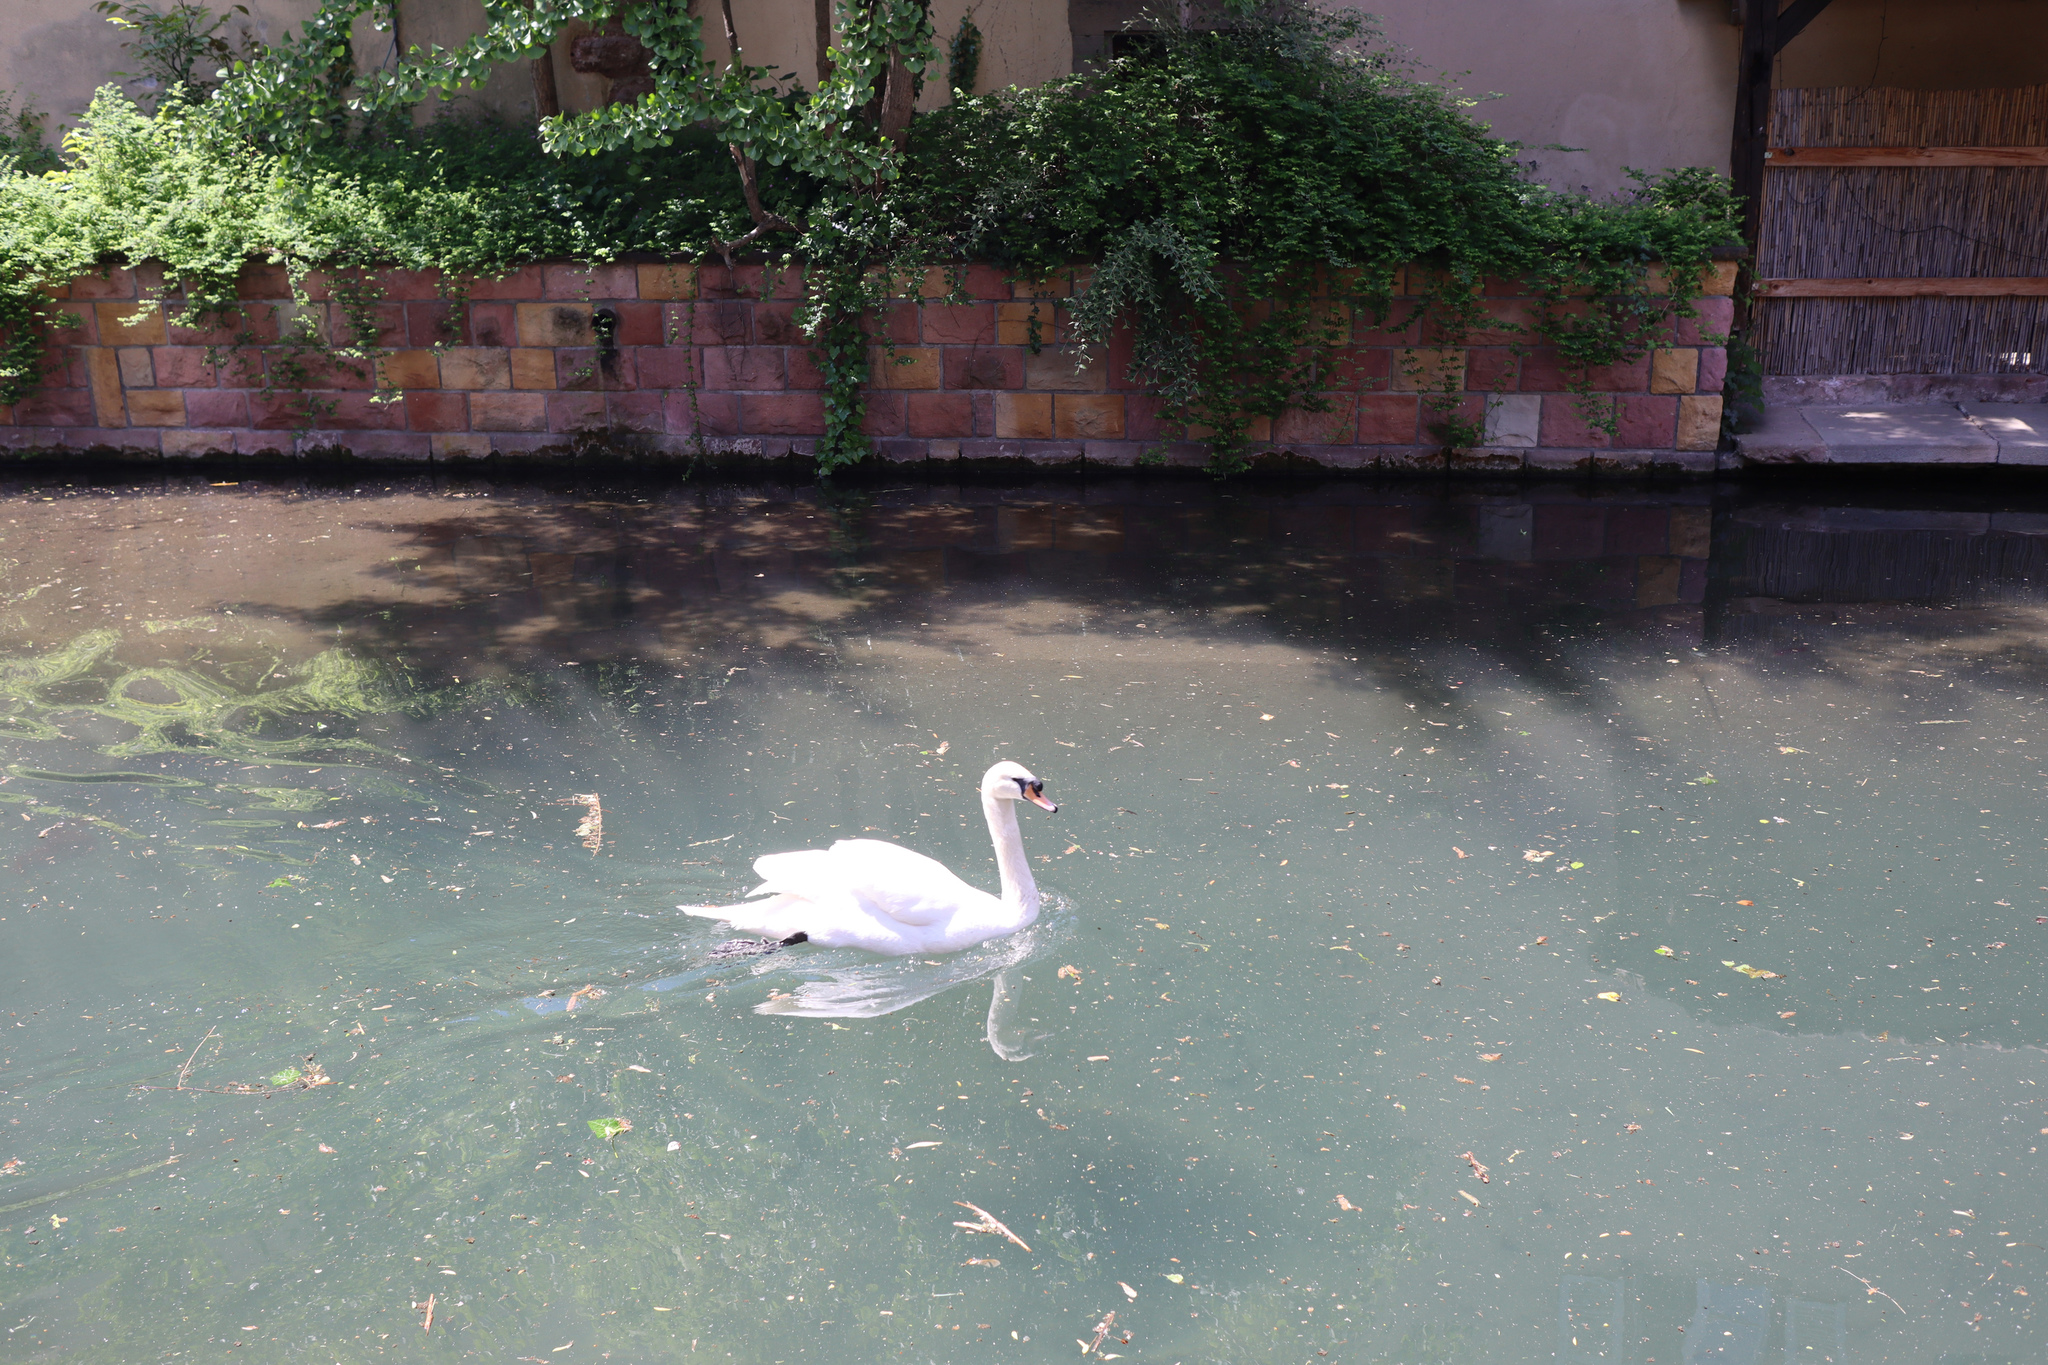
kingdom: Animalia
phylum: Chordata
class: Aves
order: Anseriformes
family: Anatidae
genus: Cygnus
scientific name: Cygnus olor
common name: Mute swan
